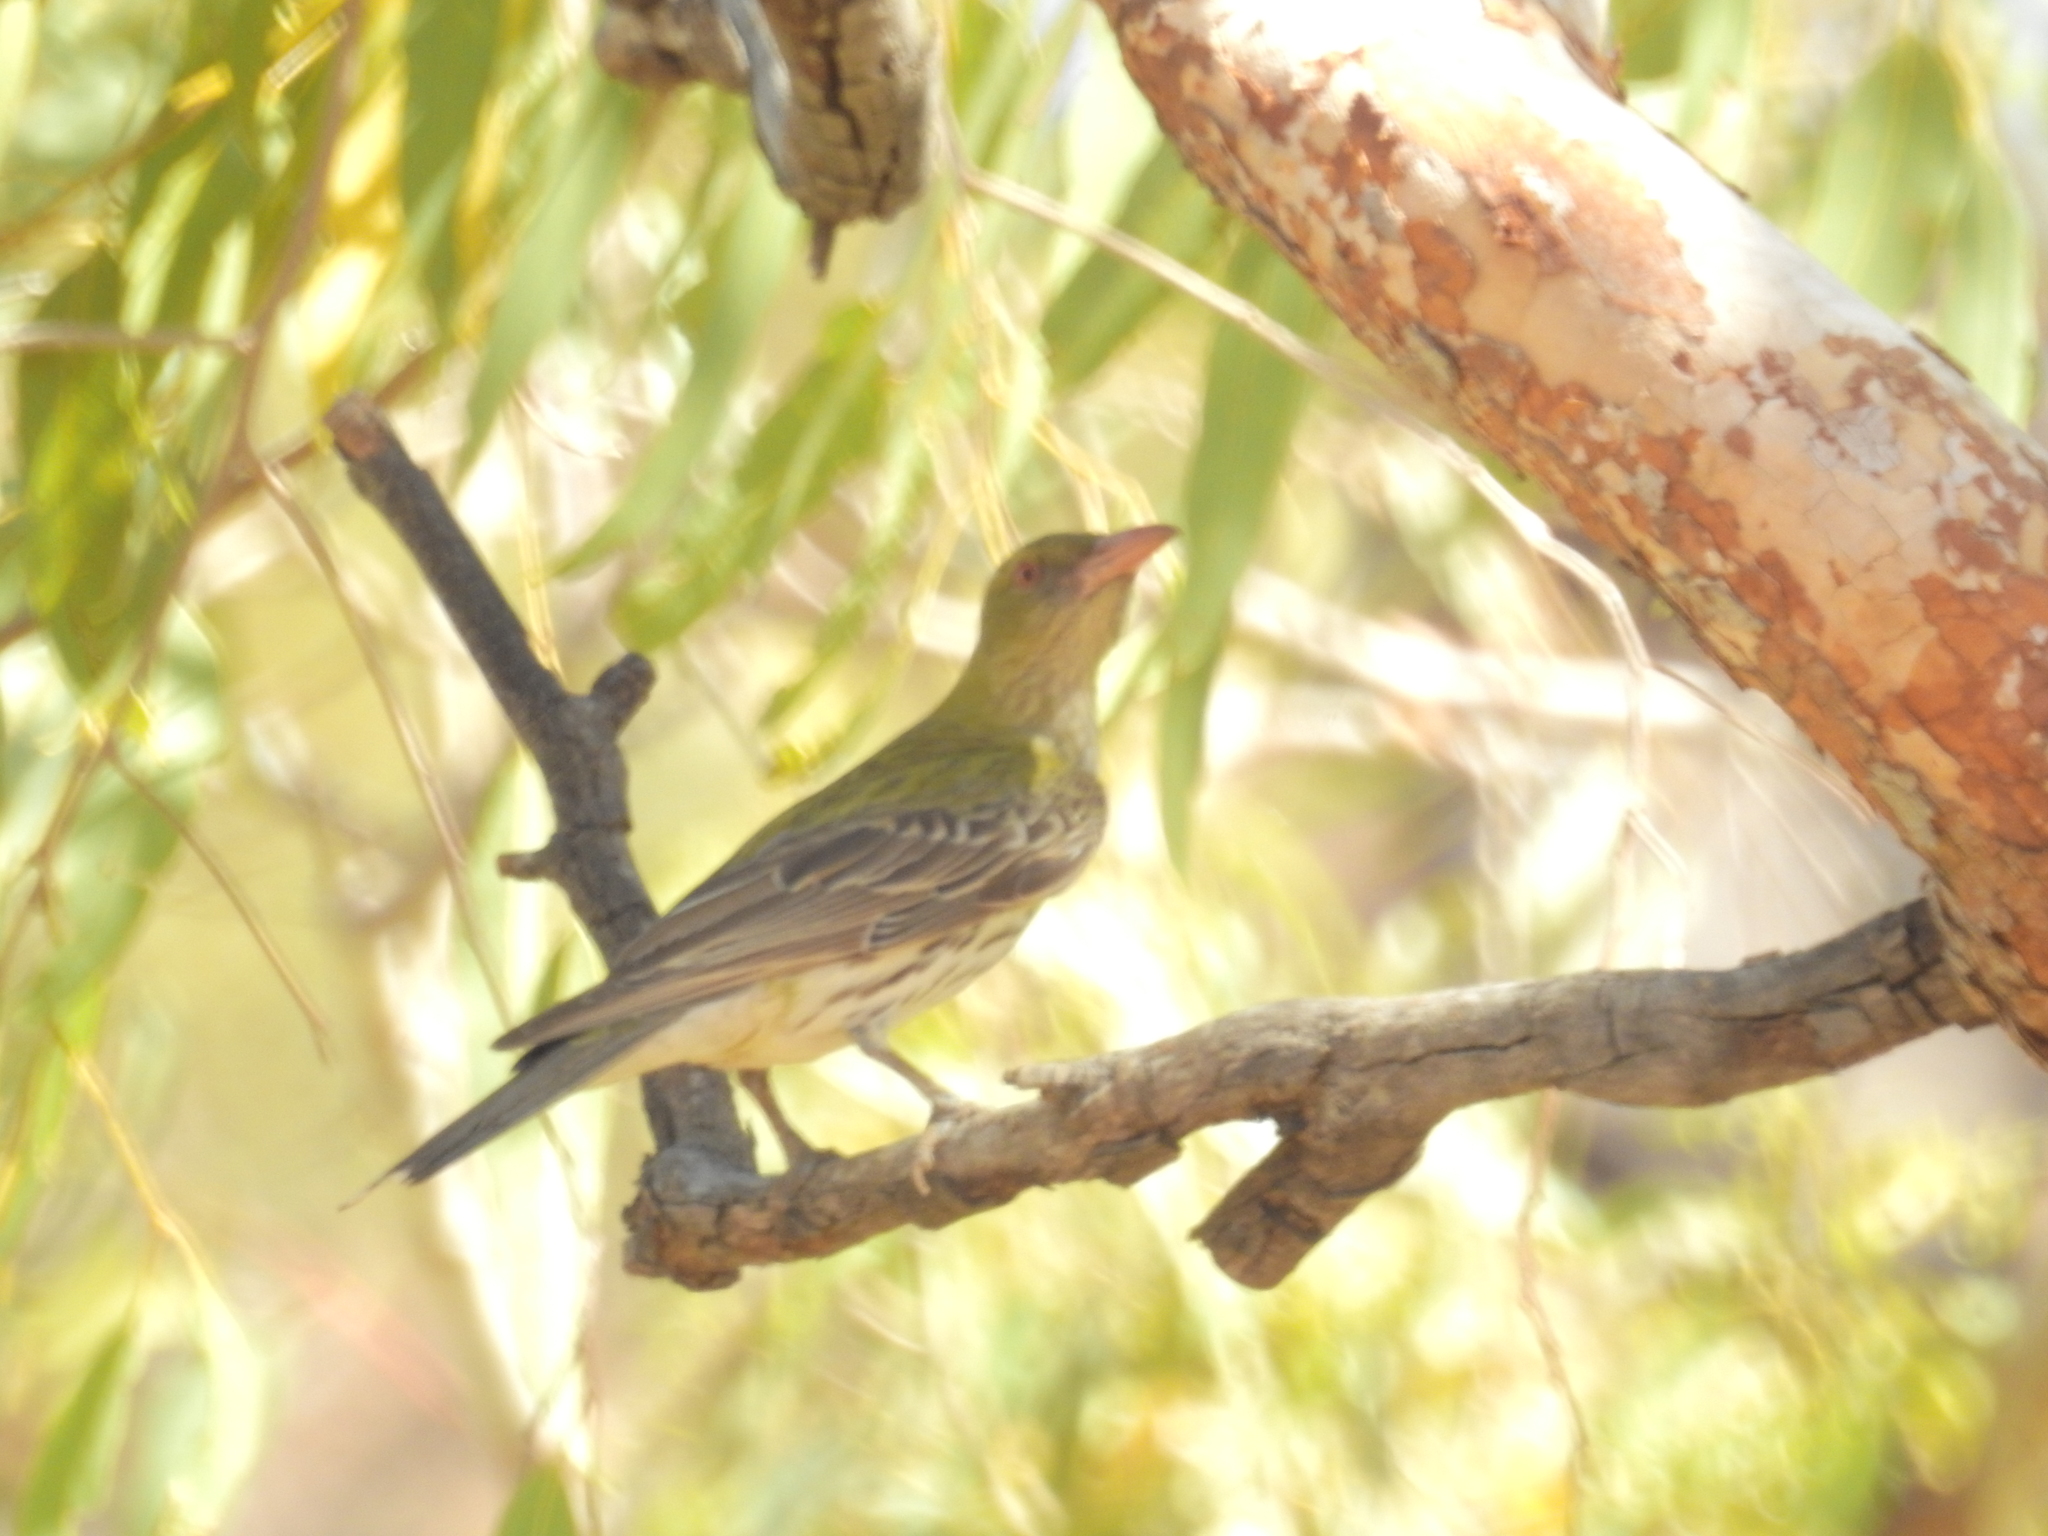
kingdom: Animalia
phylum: Chordata
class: Aves
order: Passeriformes
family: Oriolidae
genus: Oriolus
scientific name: Oriolus sagittatus
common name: Olive-backed oriole
